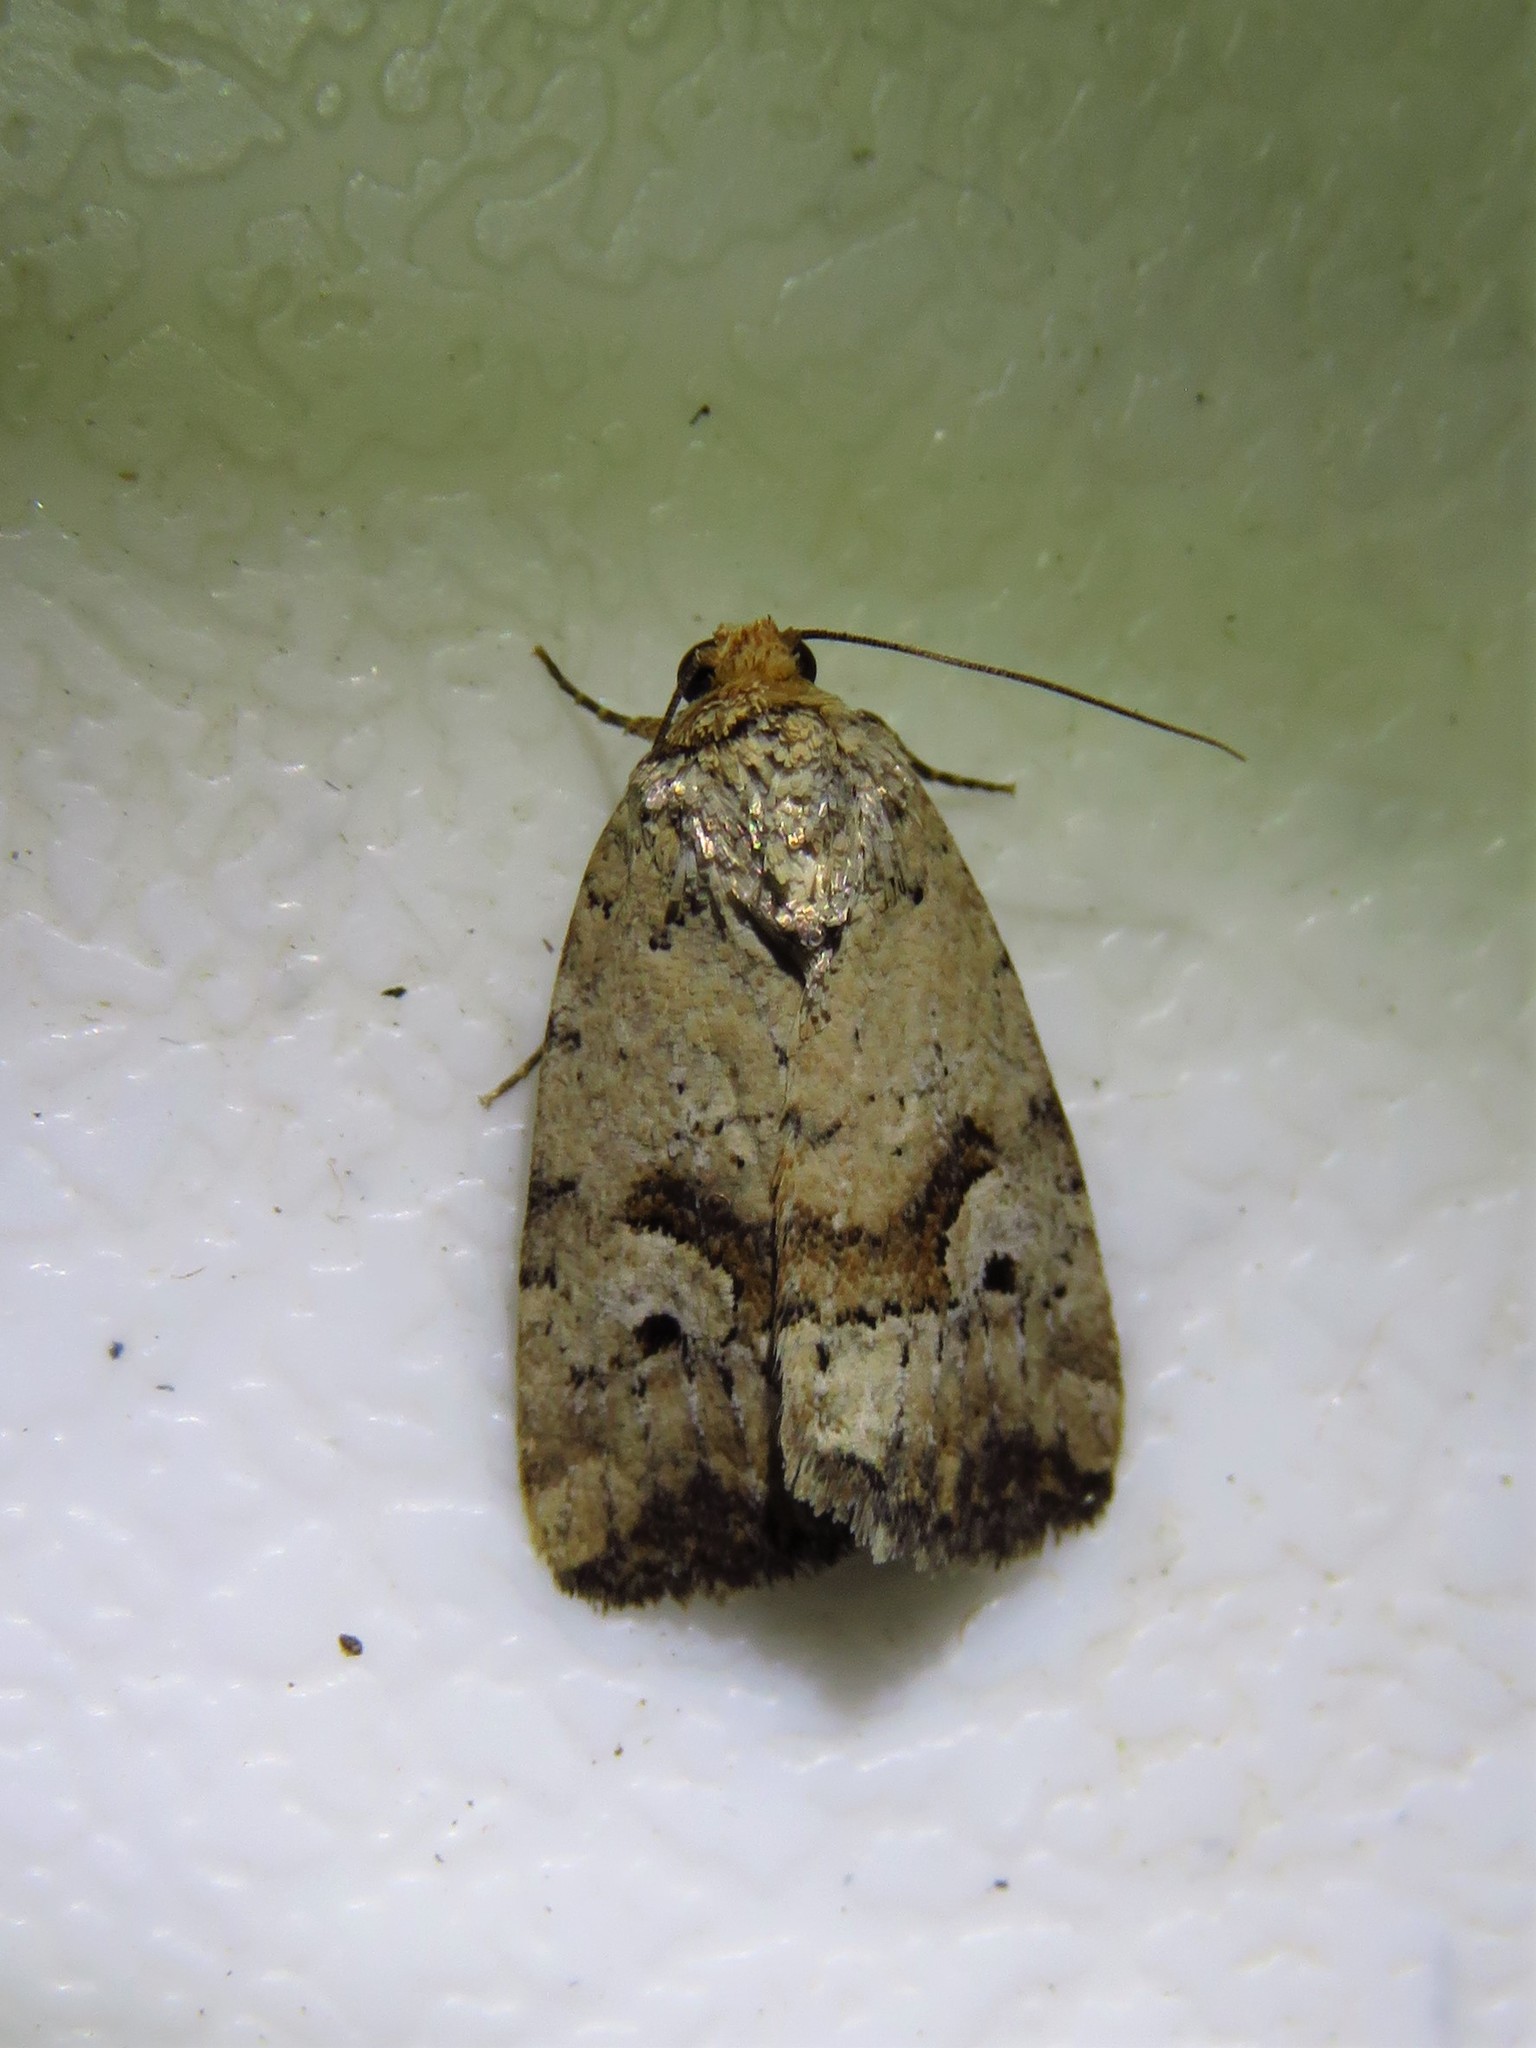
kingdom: Animalia
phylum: Arthropoda
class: Insecta
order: Lepidoptera
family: Noctuidae
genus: Elaphria
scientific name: Elaphria festivoides
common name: Festive midget
